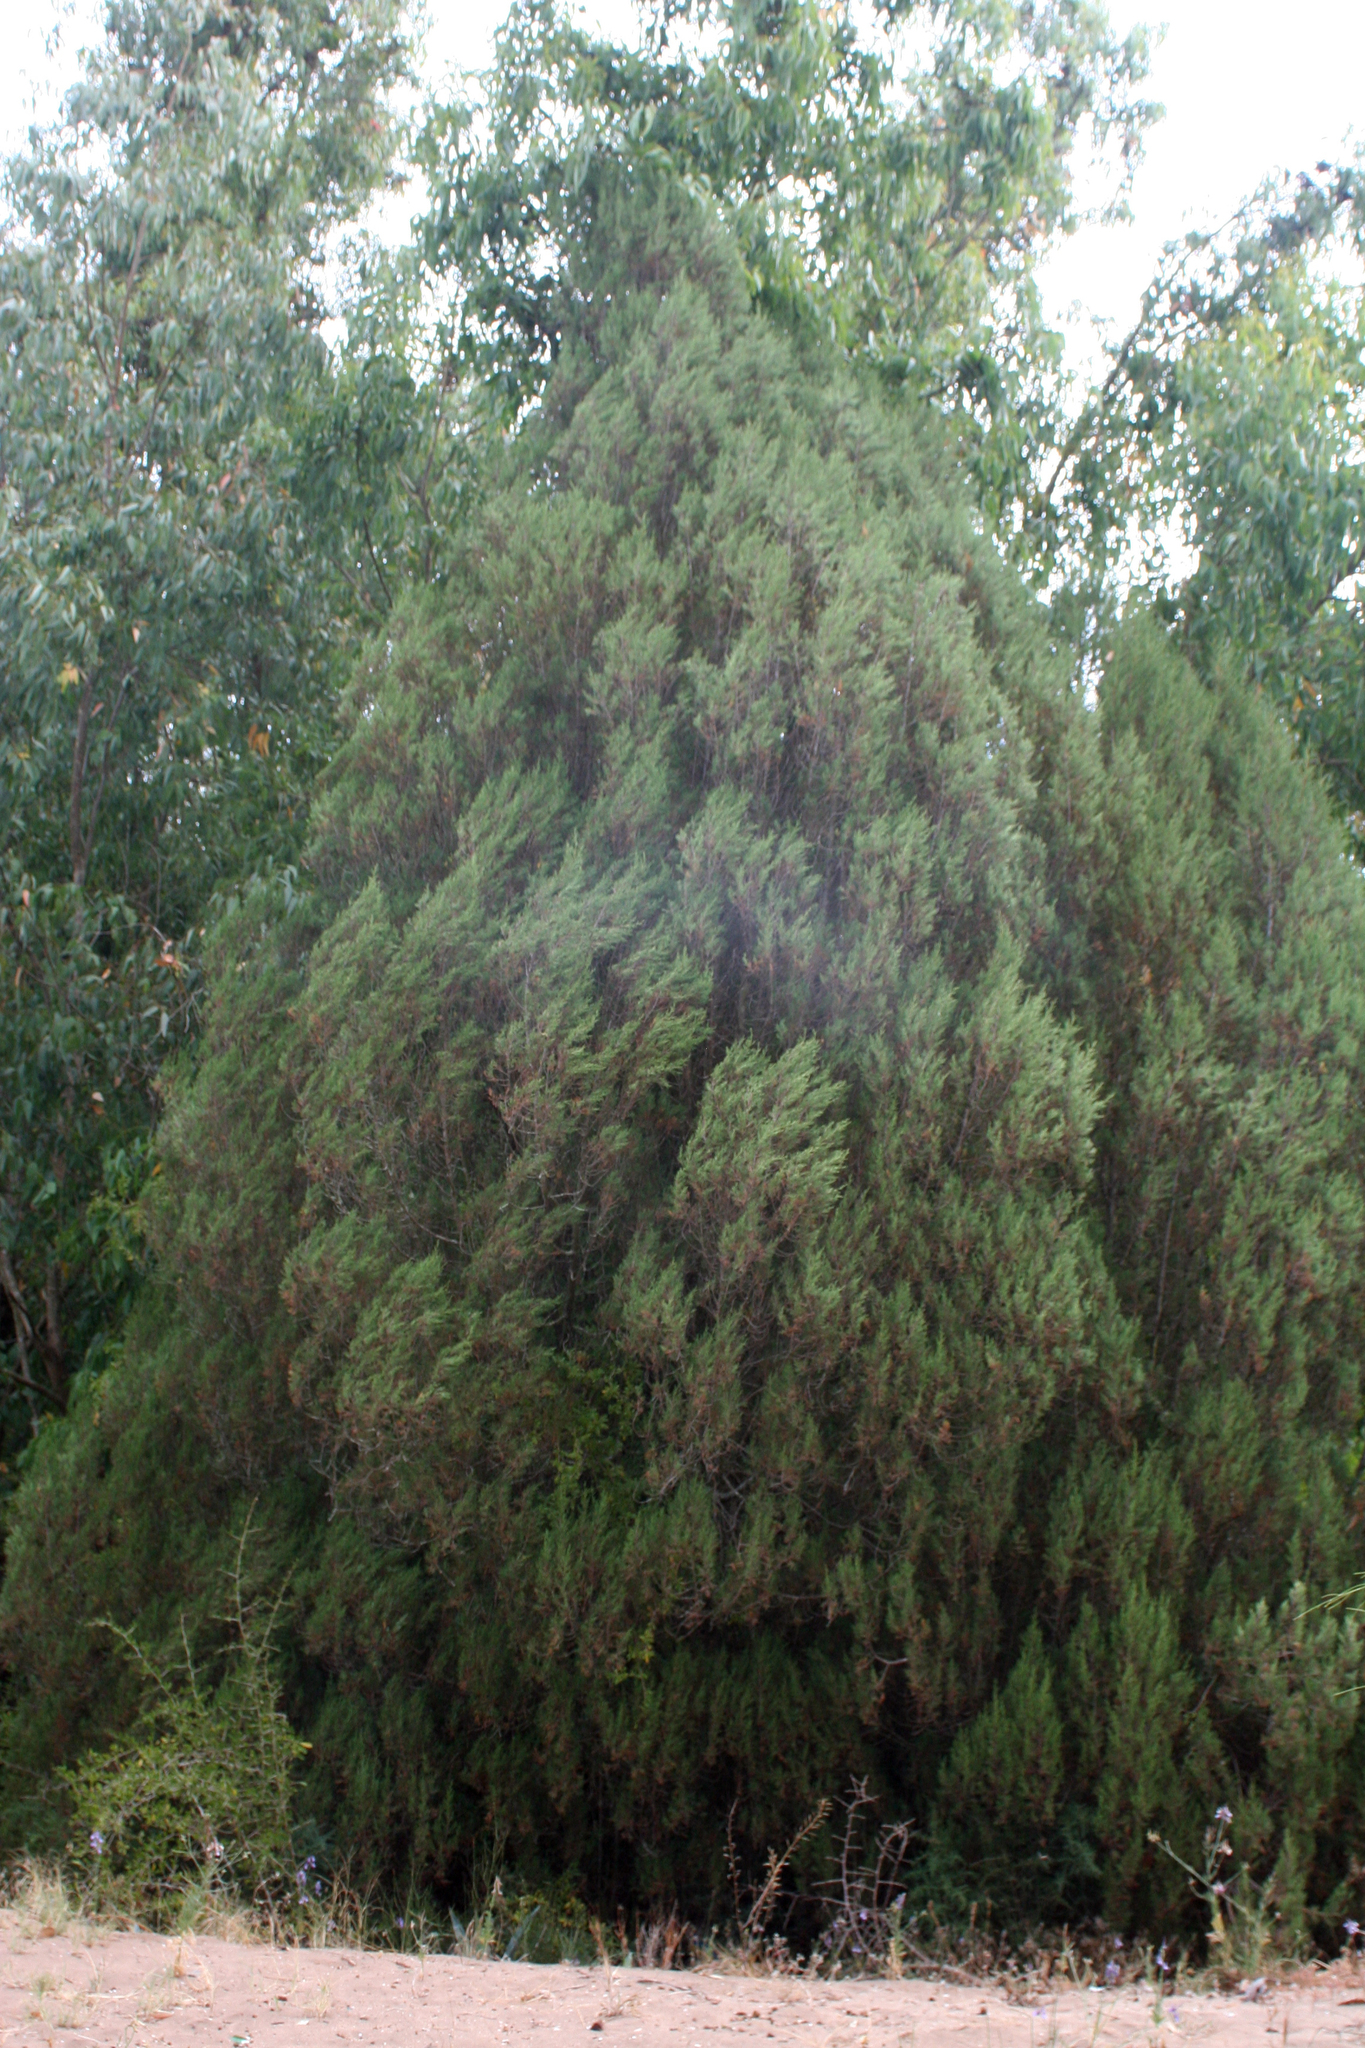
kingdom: Plantae
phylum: Tracheophyta
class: Pinopsida
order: Pinales
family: Cupressaceae
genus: Juniperus
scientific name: Juniperus phoenicea
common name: Phoenician juniper
